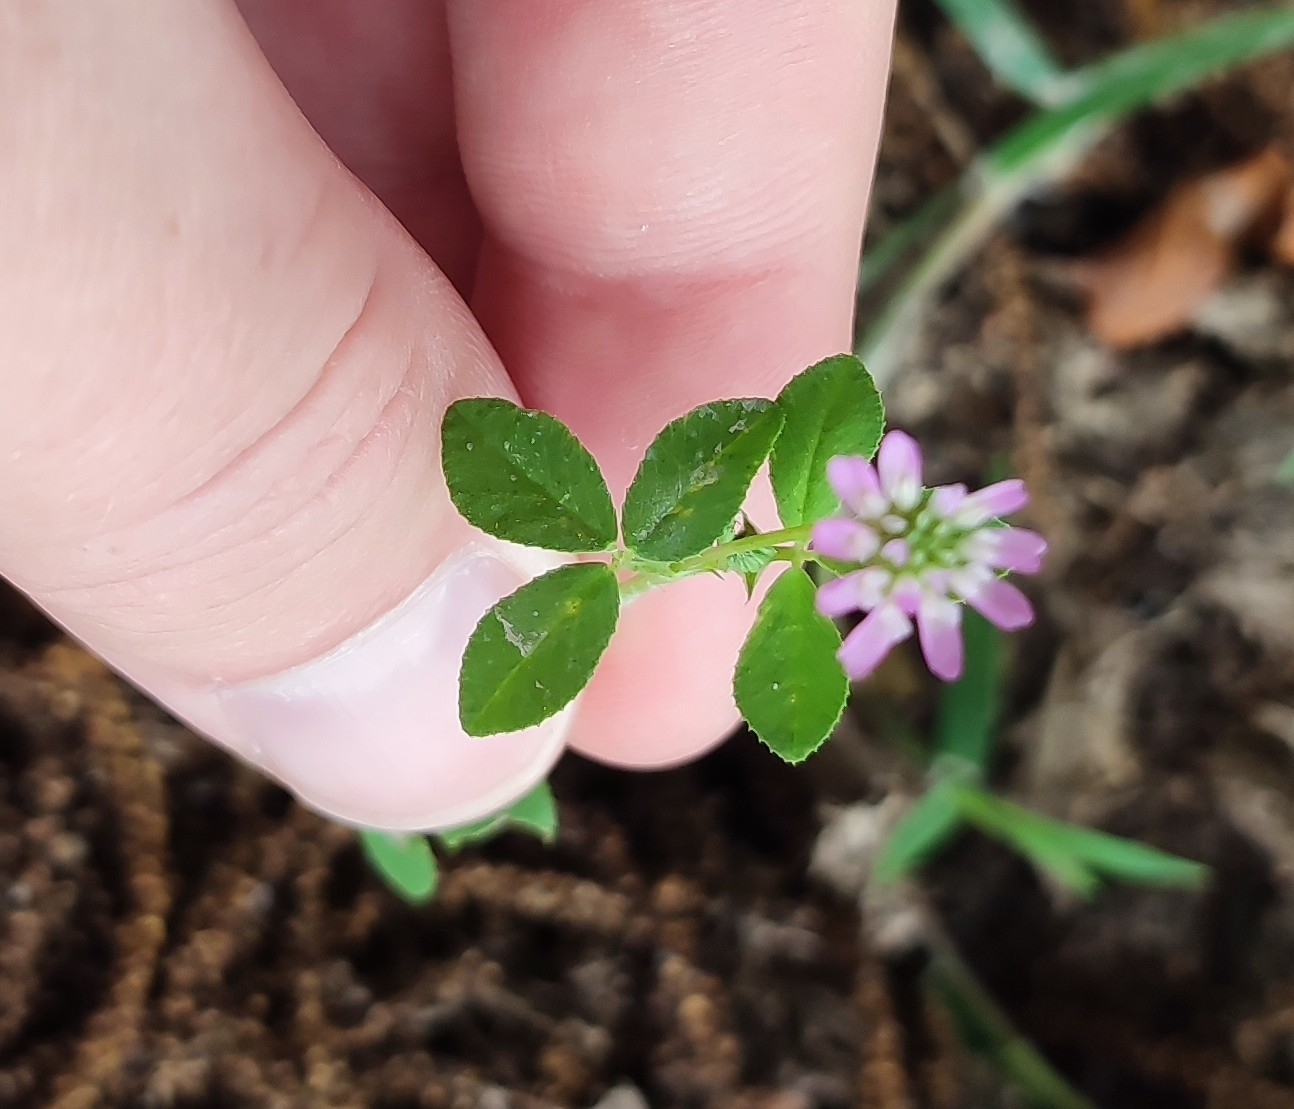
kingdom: Plantae
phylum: Tracheophyta
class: Magnoliopsida
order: Fabales
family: Fabaceae
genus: Trifolium
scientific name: Trifolium resupinatum
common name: Reversed clover
